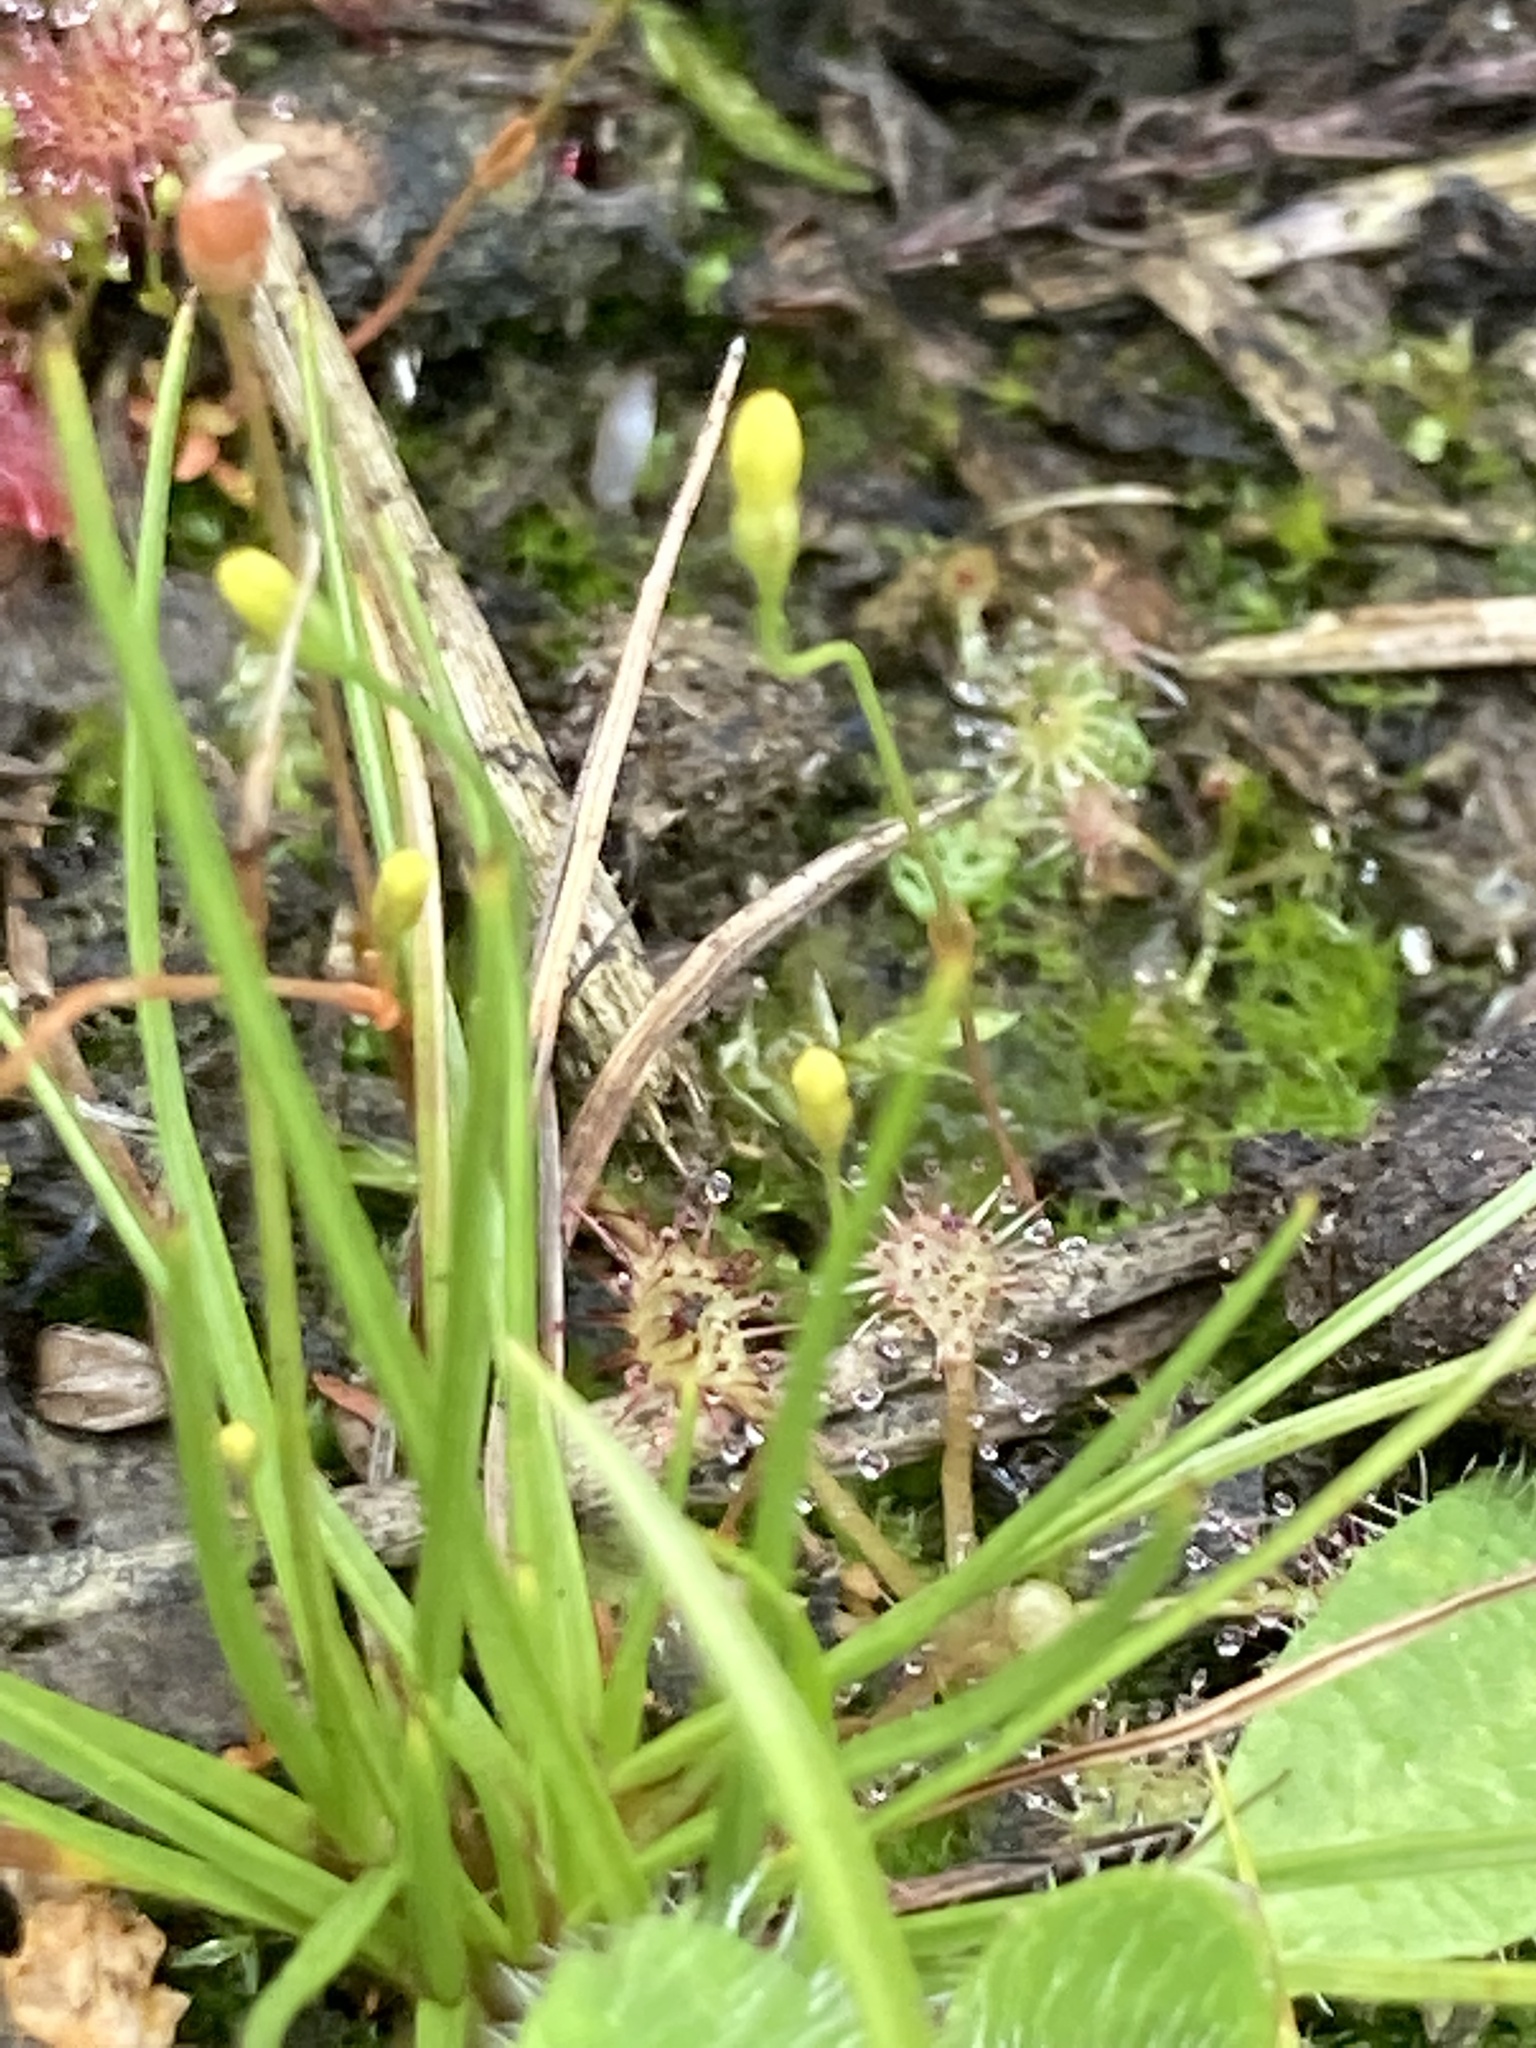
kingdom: Plantae
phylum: Tracheophyta
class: Magnoliopsida
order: Gentianales
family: Gentianaceae
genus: Cicendia
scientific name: Cicendia filiformis
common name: Yellow centaury
